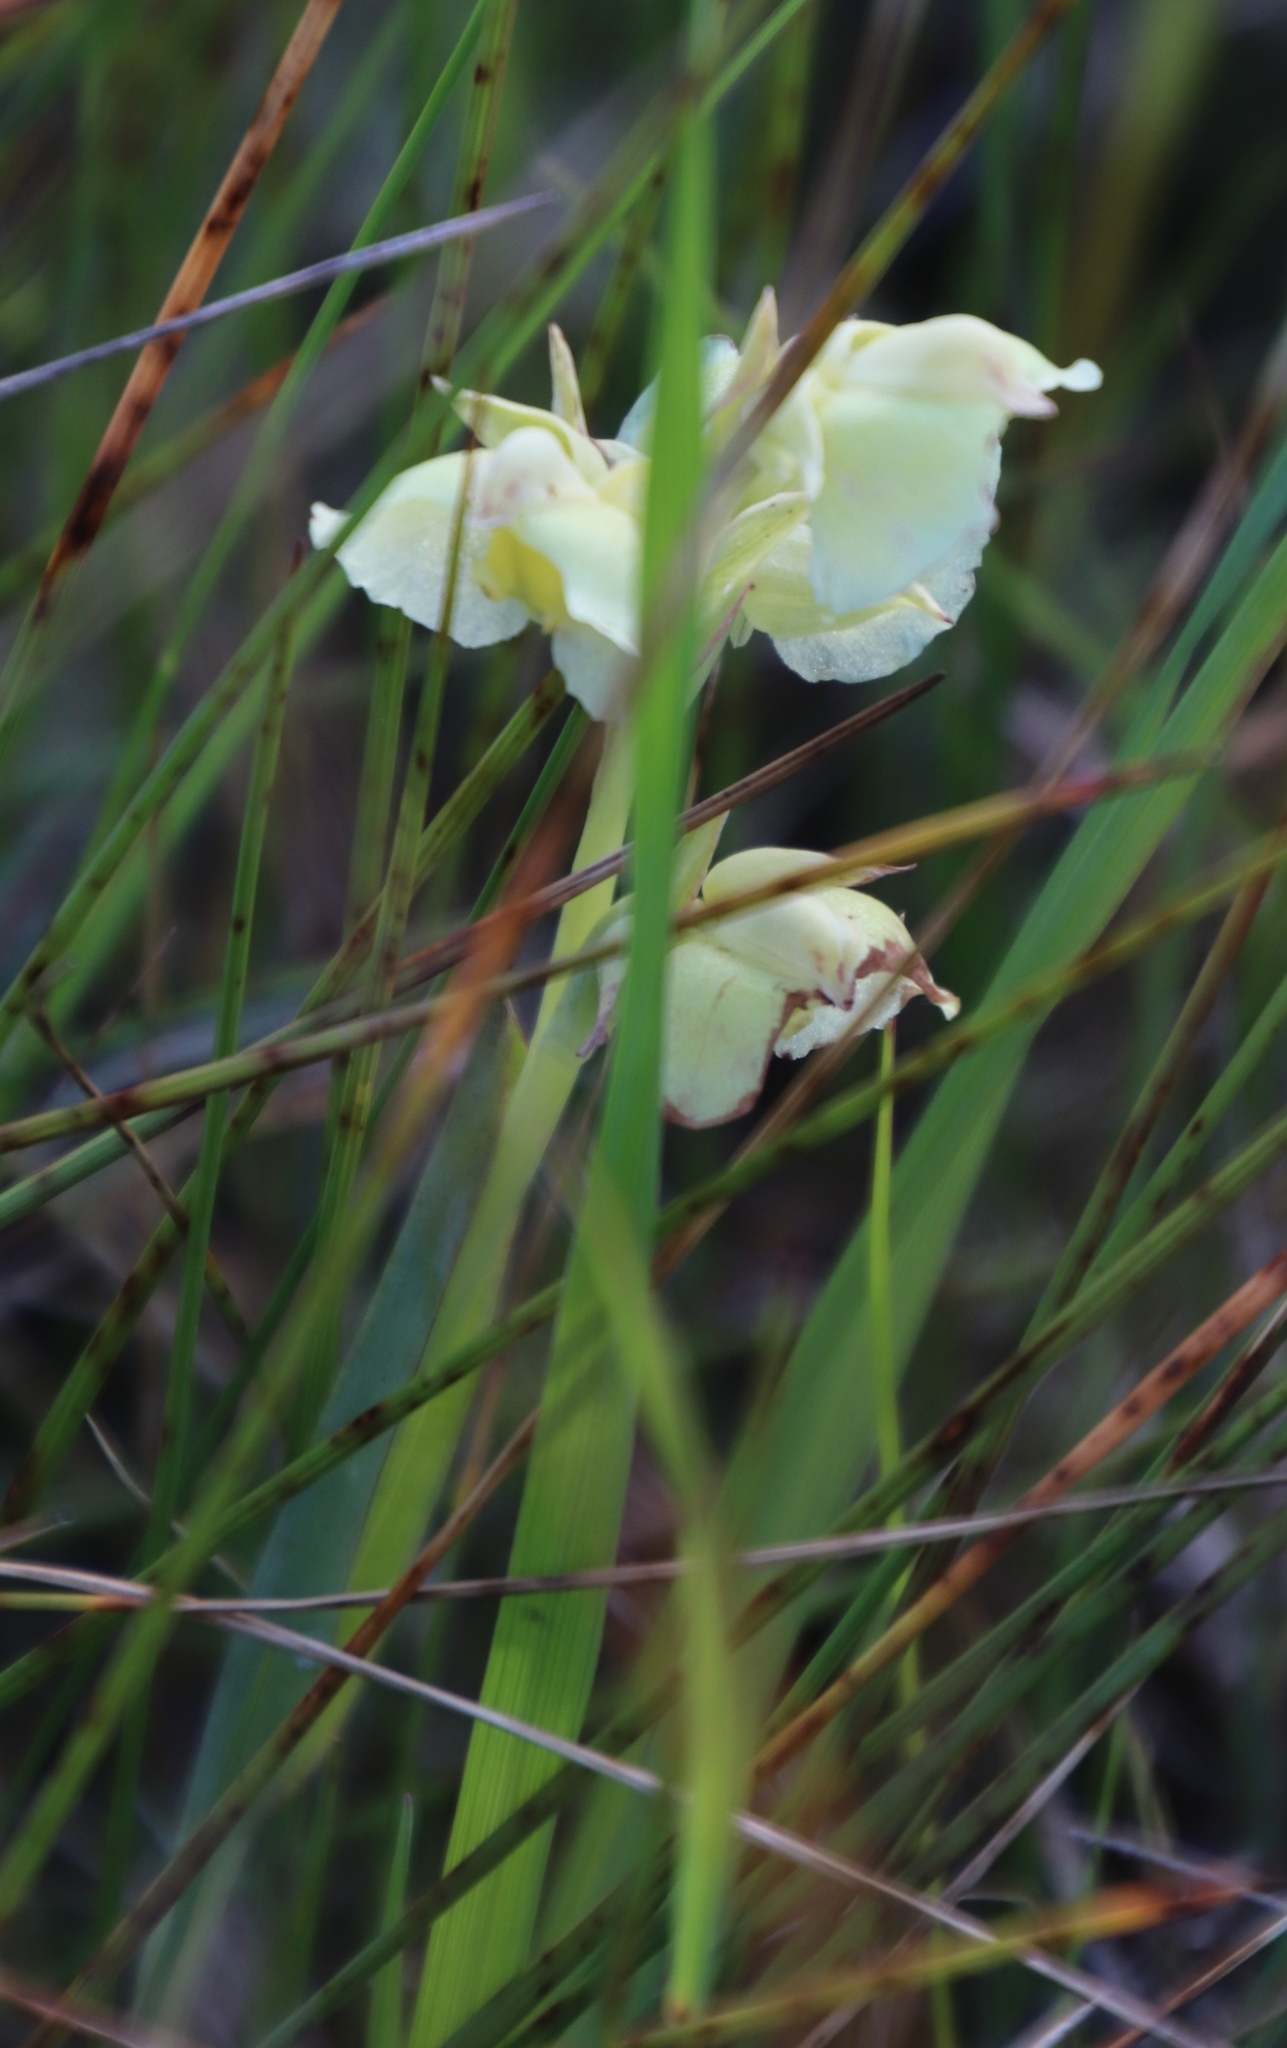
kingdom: Plantae
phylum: Tracheophyta
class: Liliopsida
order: Asparagales
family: Orchidaceae
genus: Pterygodium
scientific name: Pterygodium catholicum
